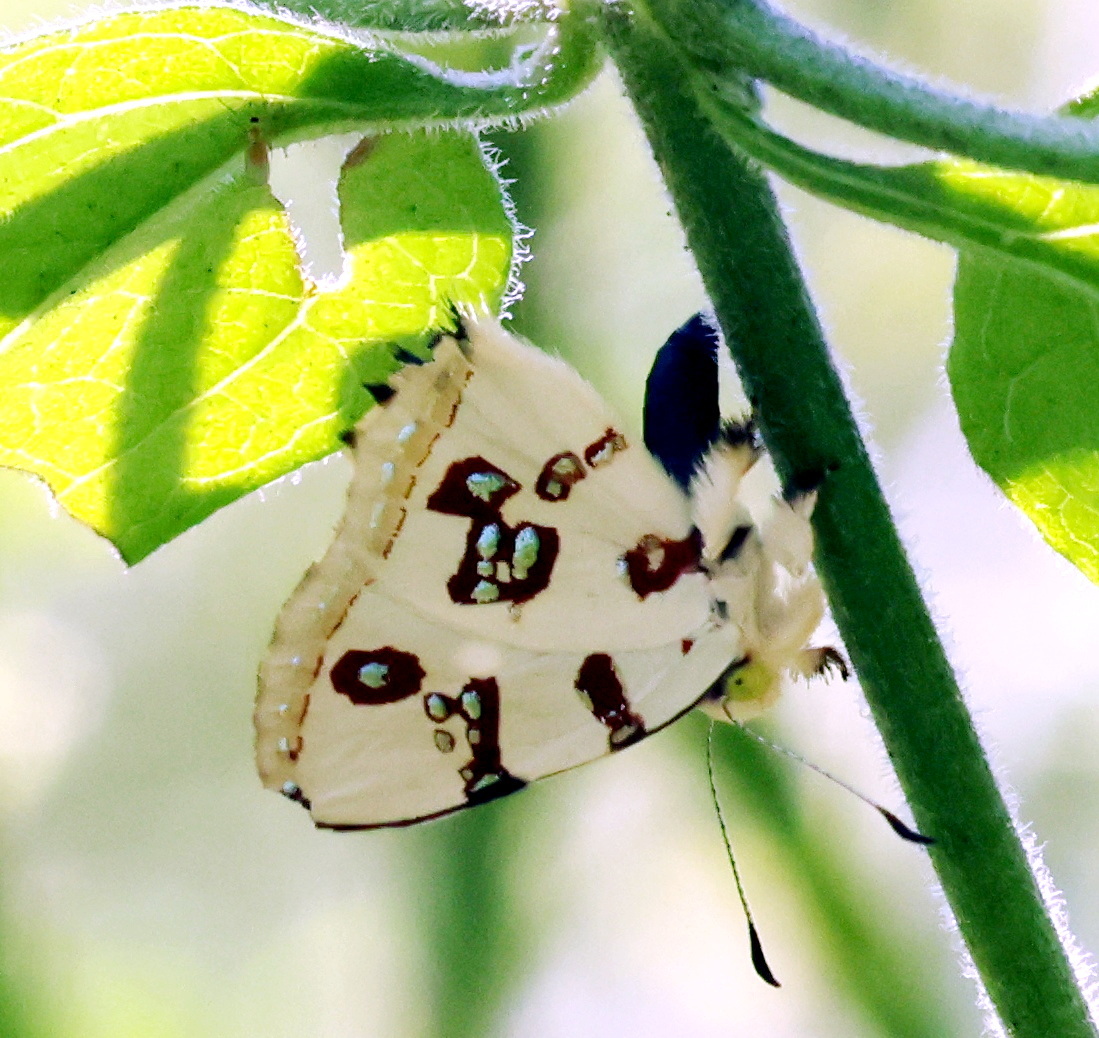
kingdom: Animalia
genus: Anteros
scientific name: Anteros formosus
